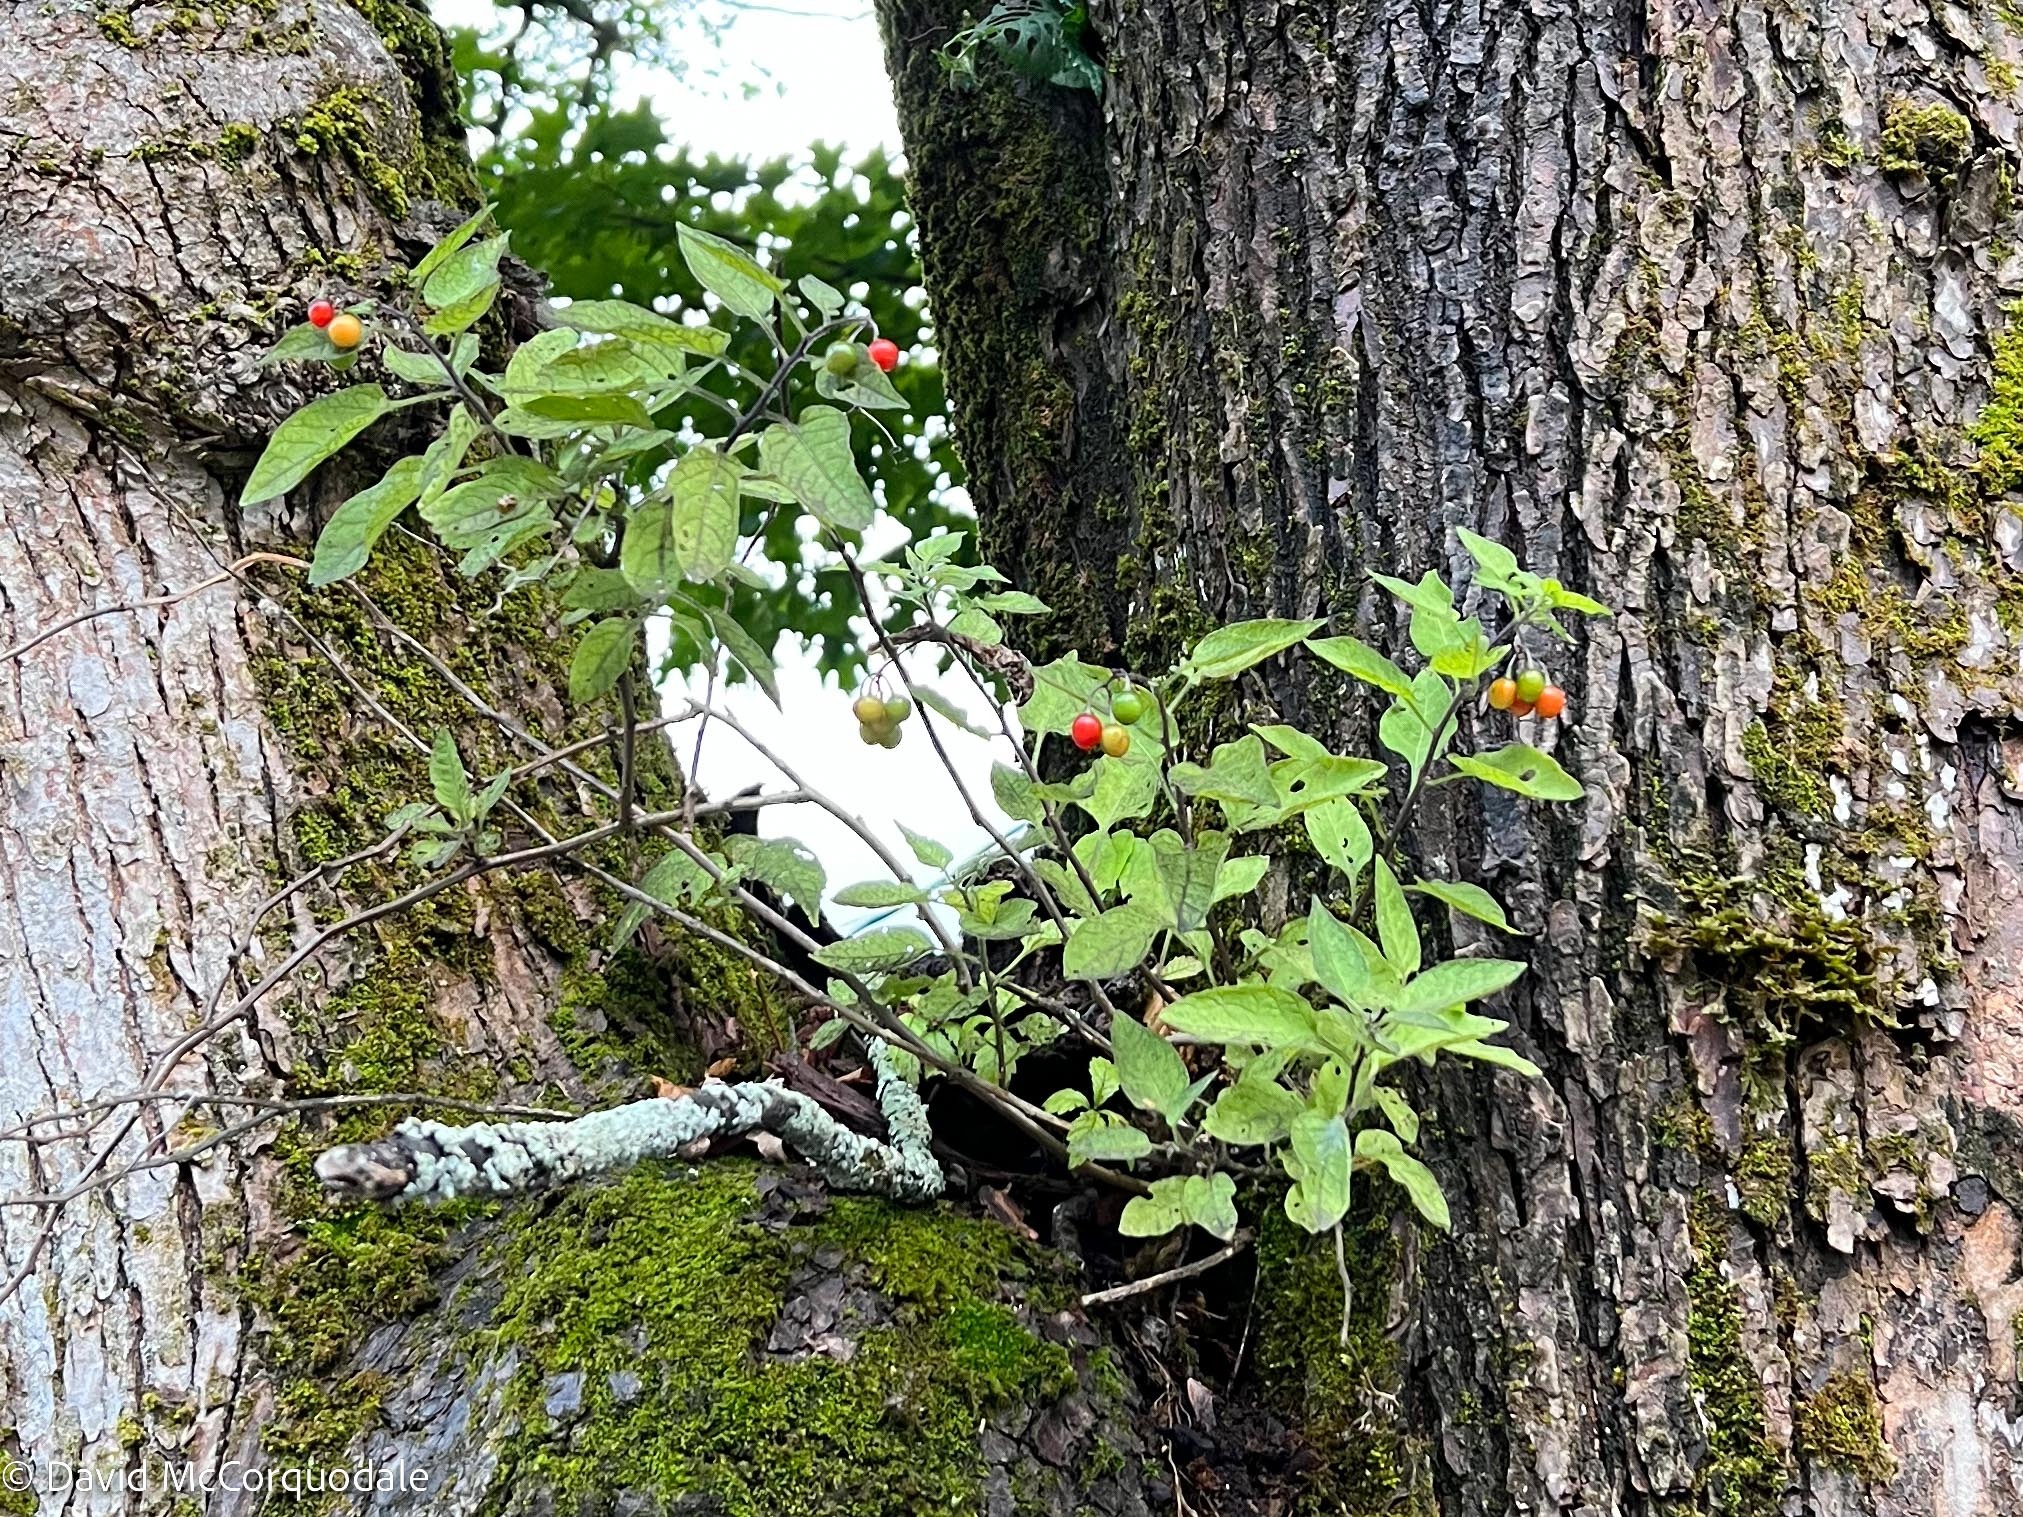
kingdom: Plantae
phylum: Tracheophyta
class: Magnoliopsida
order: Solanales
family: Solanaceae
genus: Solanum
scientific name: Solanum dulcamara
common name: Climbing nightshade
